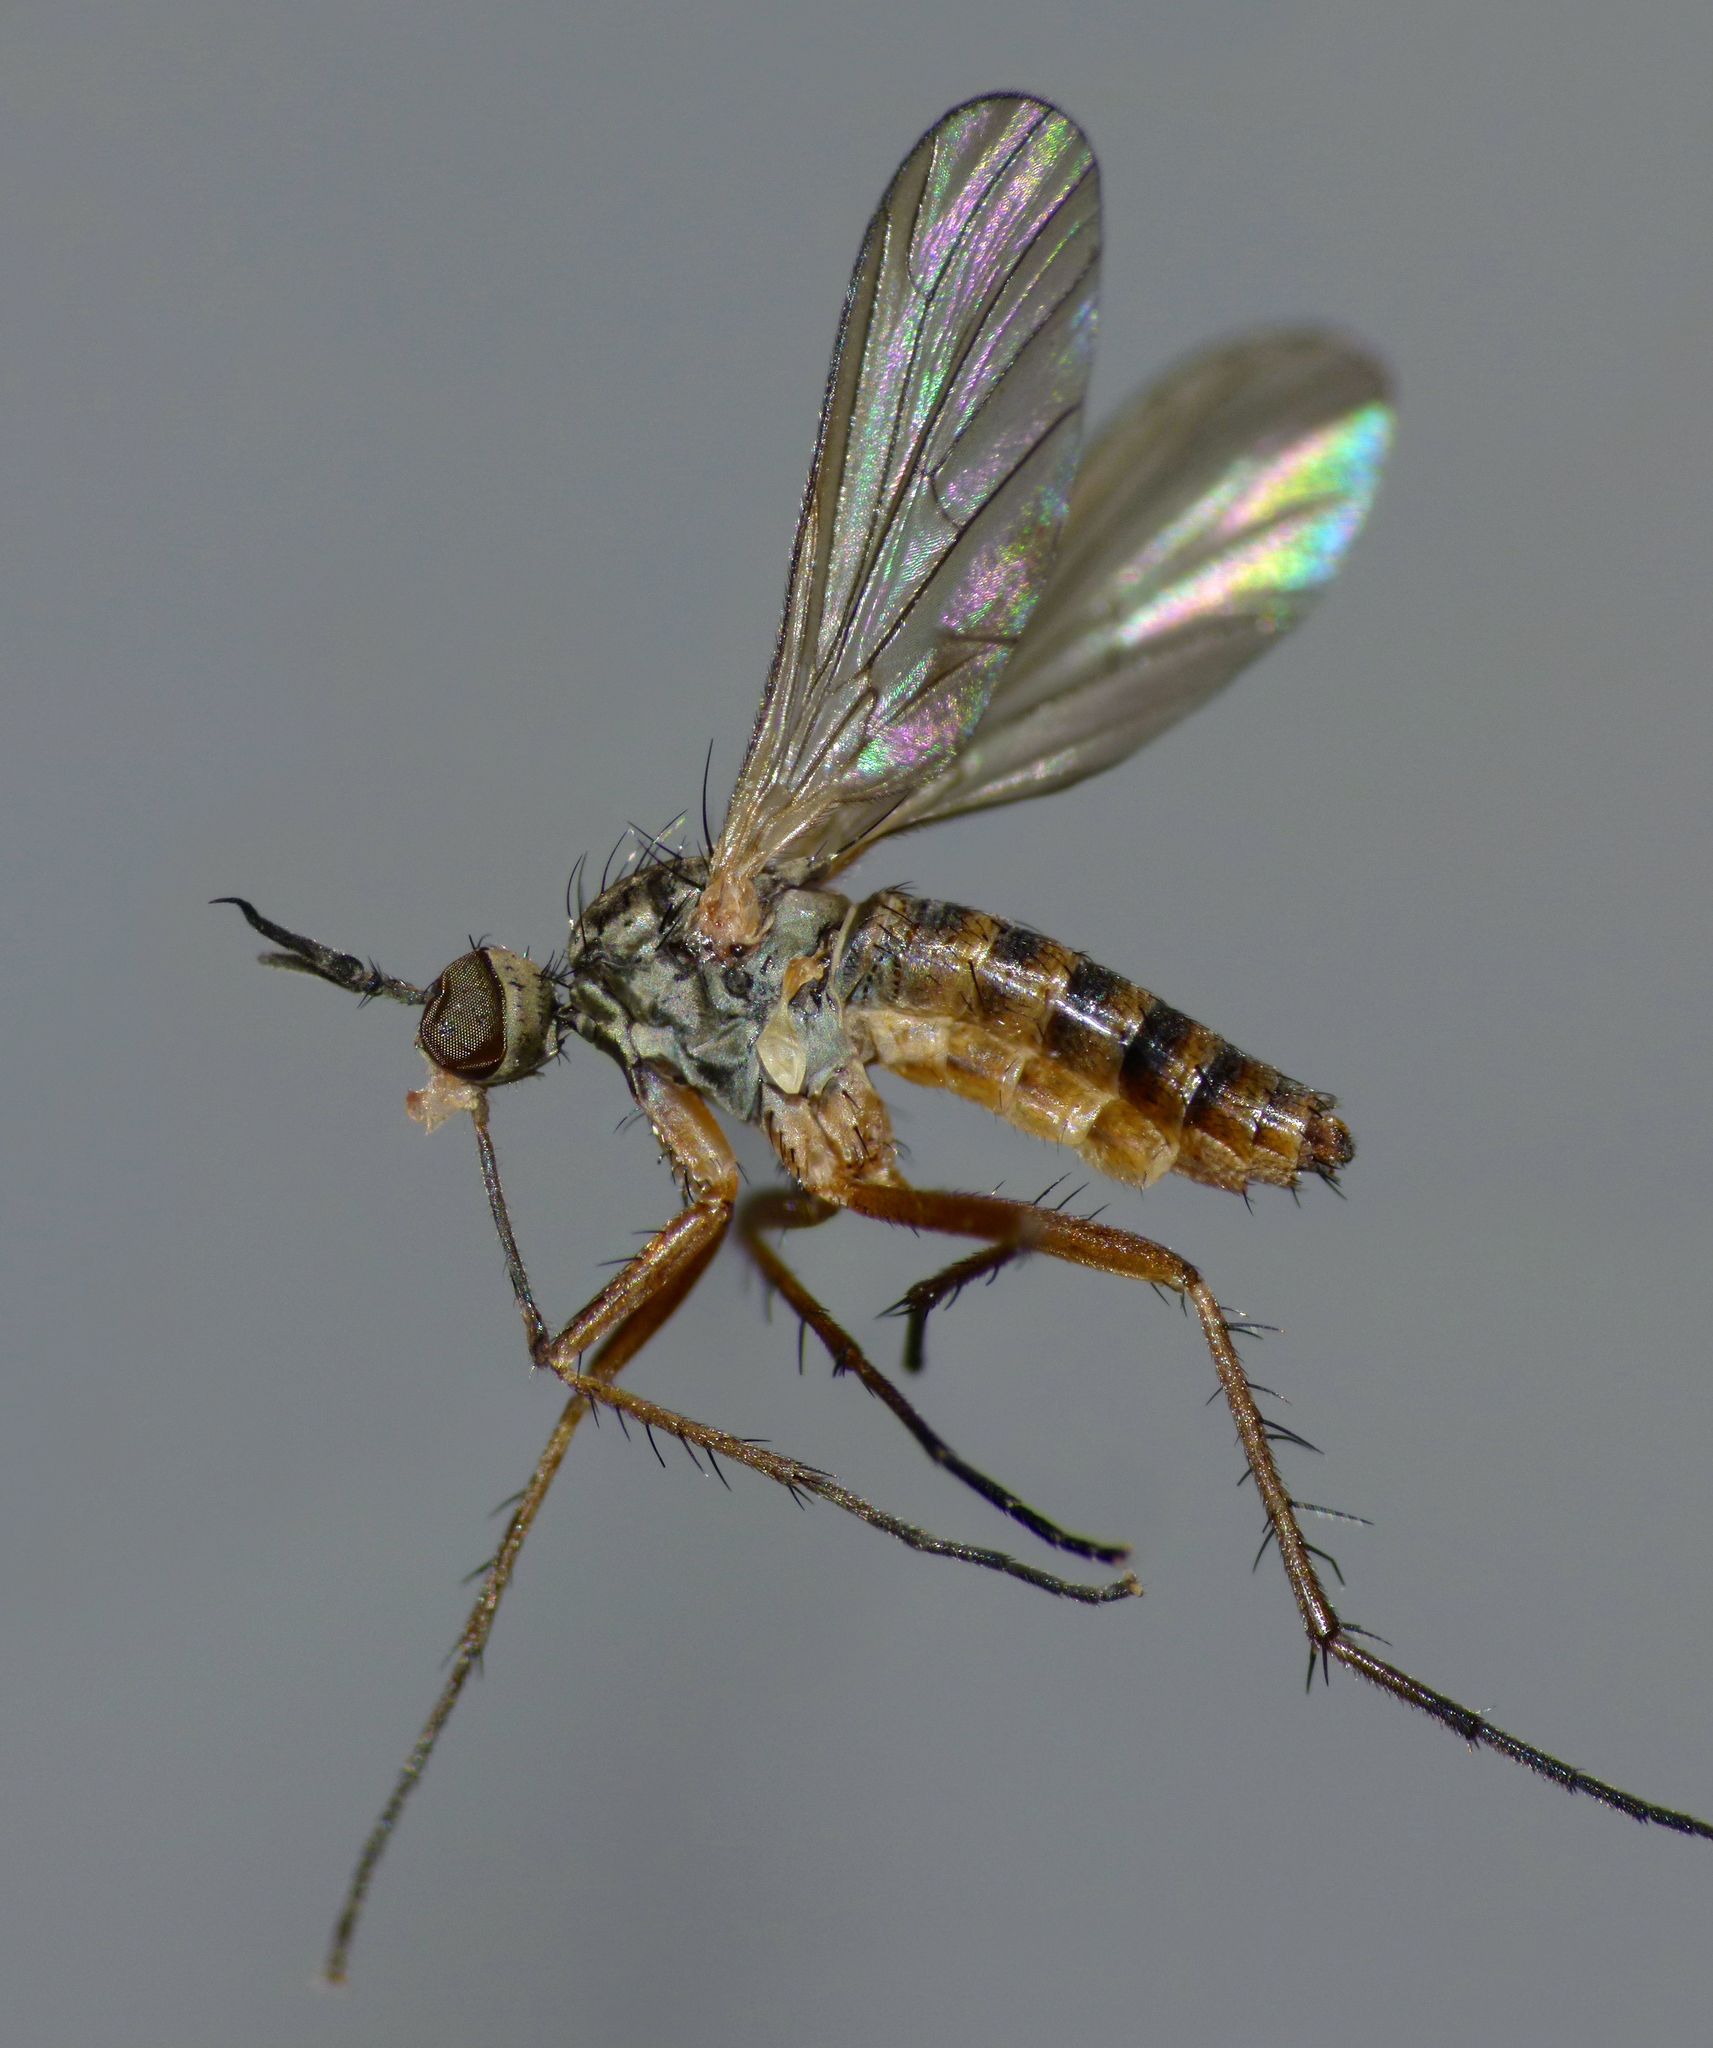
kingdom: Animalia
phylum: Arthropoda
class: Insecta
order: Diptera
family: Empididae
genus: Empidadelpha
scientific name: Empidadelpha propria
